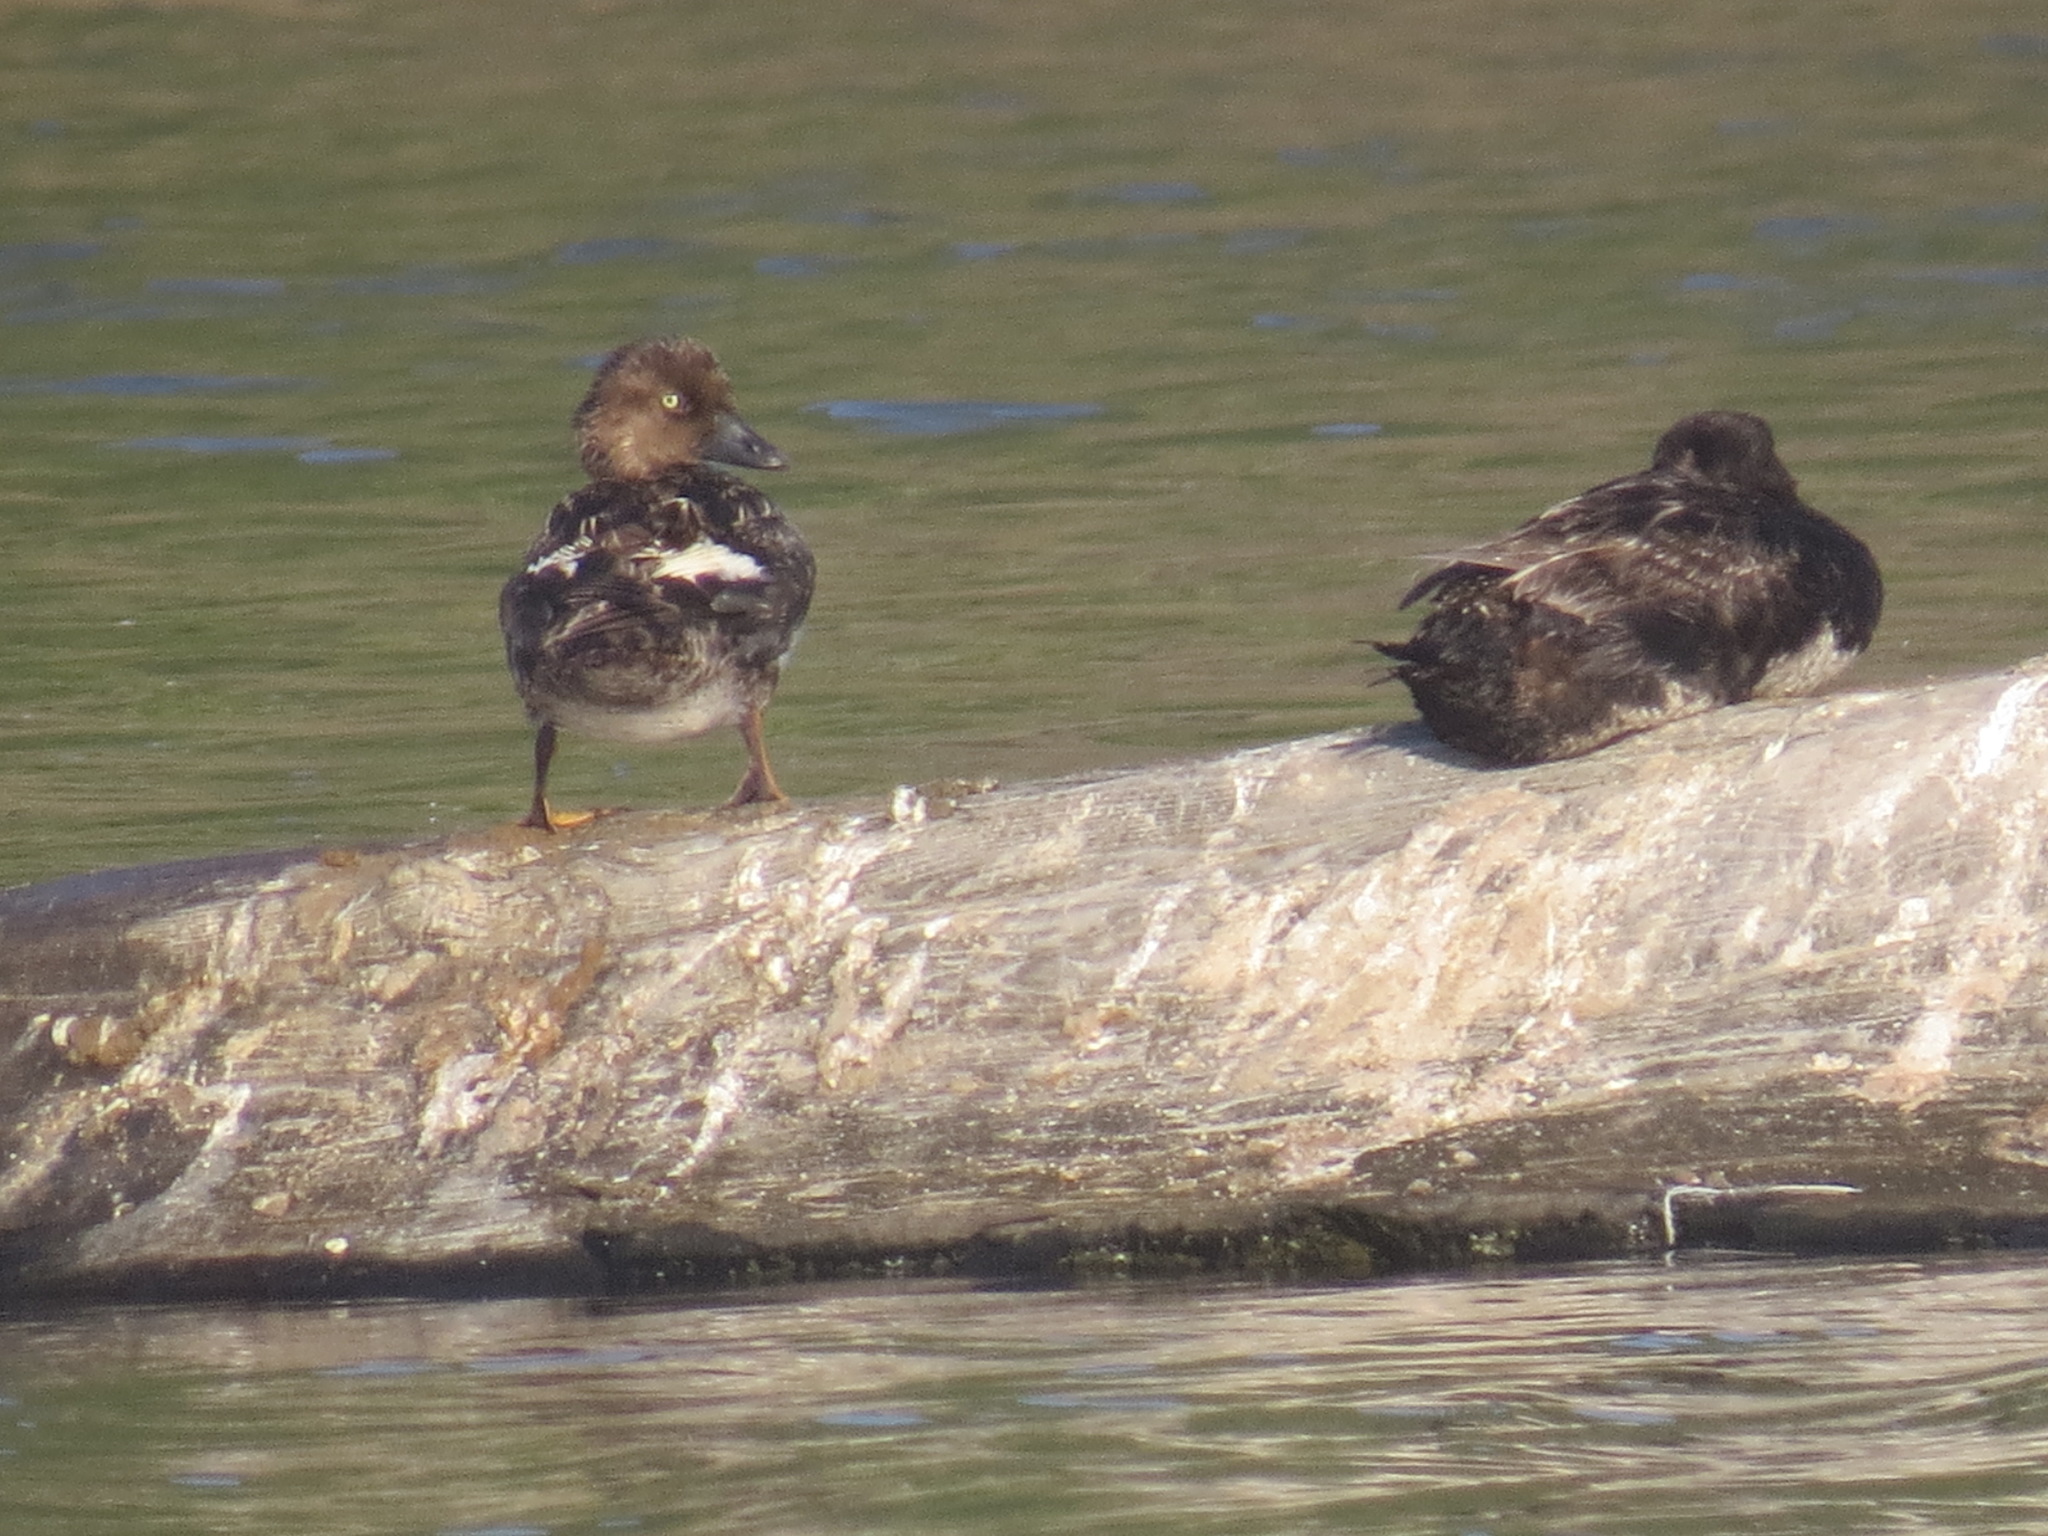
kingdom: Animalia
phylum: Chordata
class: Aves
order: Anseriformes
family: Anatidae
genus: Bucephala
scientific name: Bucephala clangula
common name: Common goldeneye
